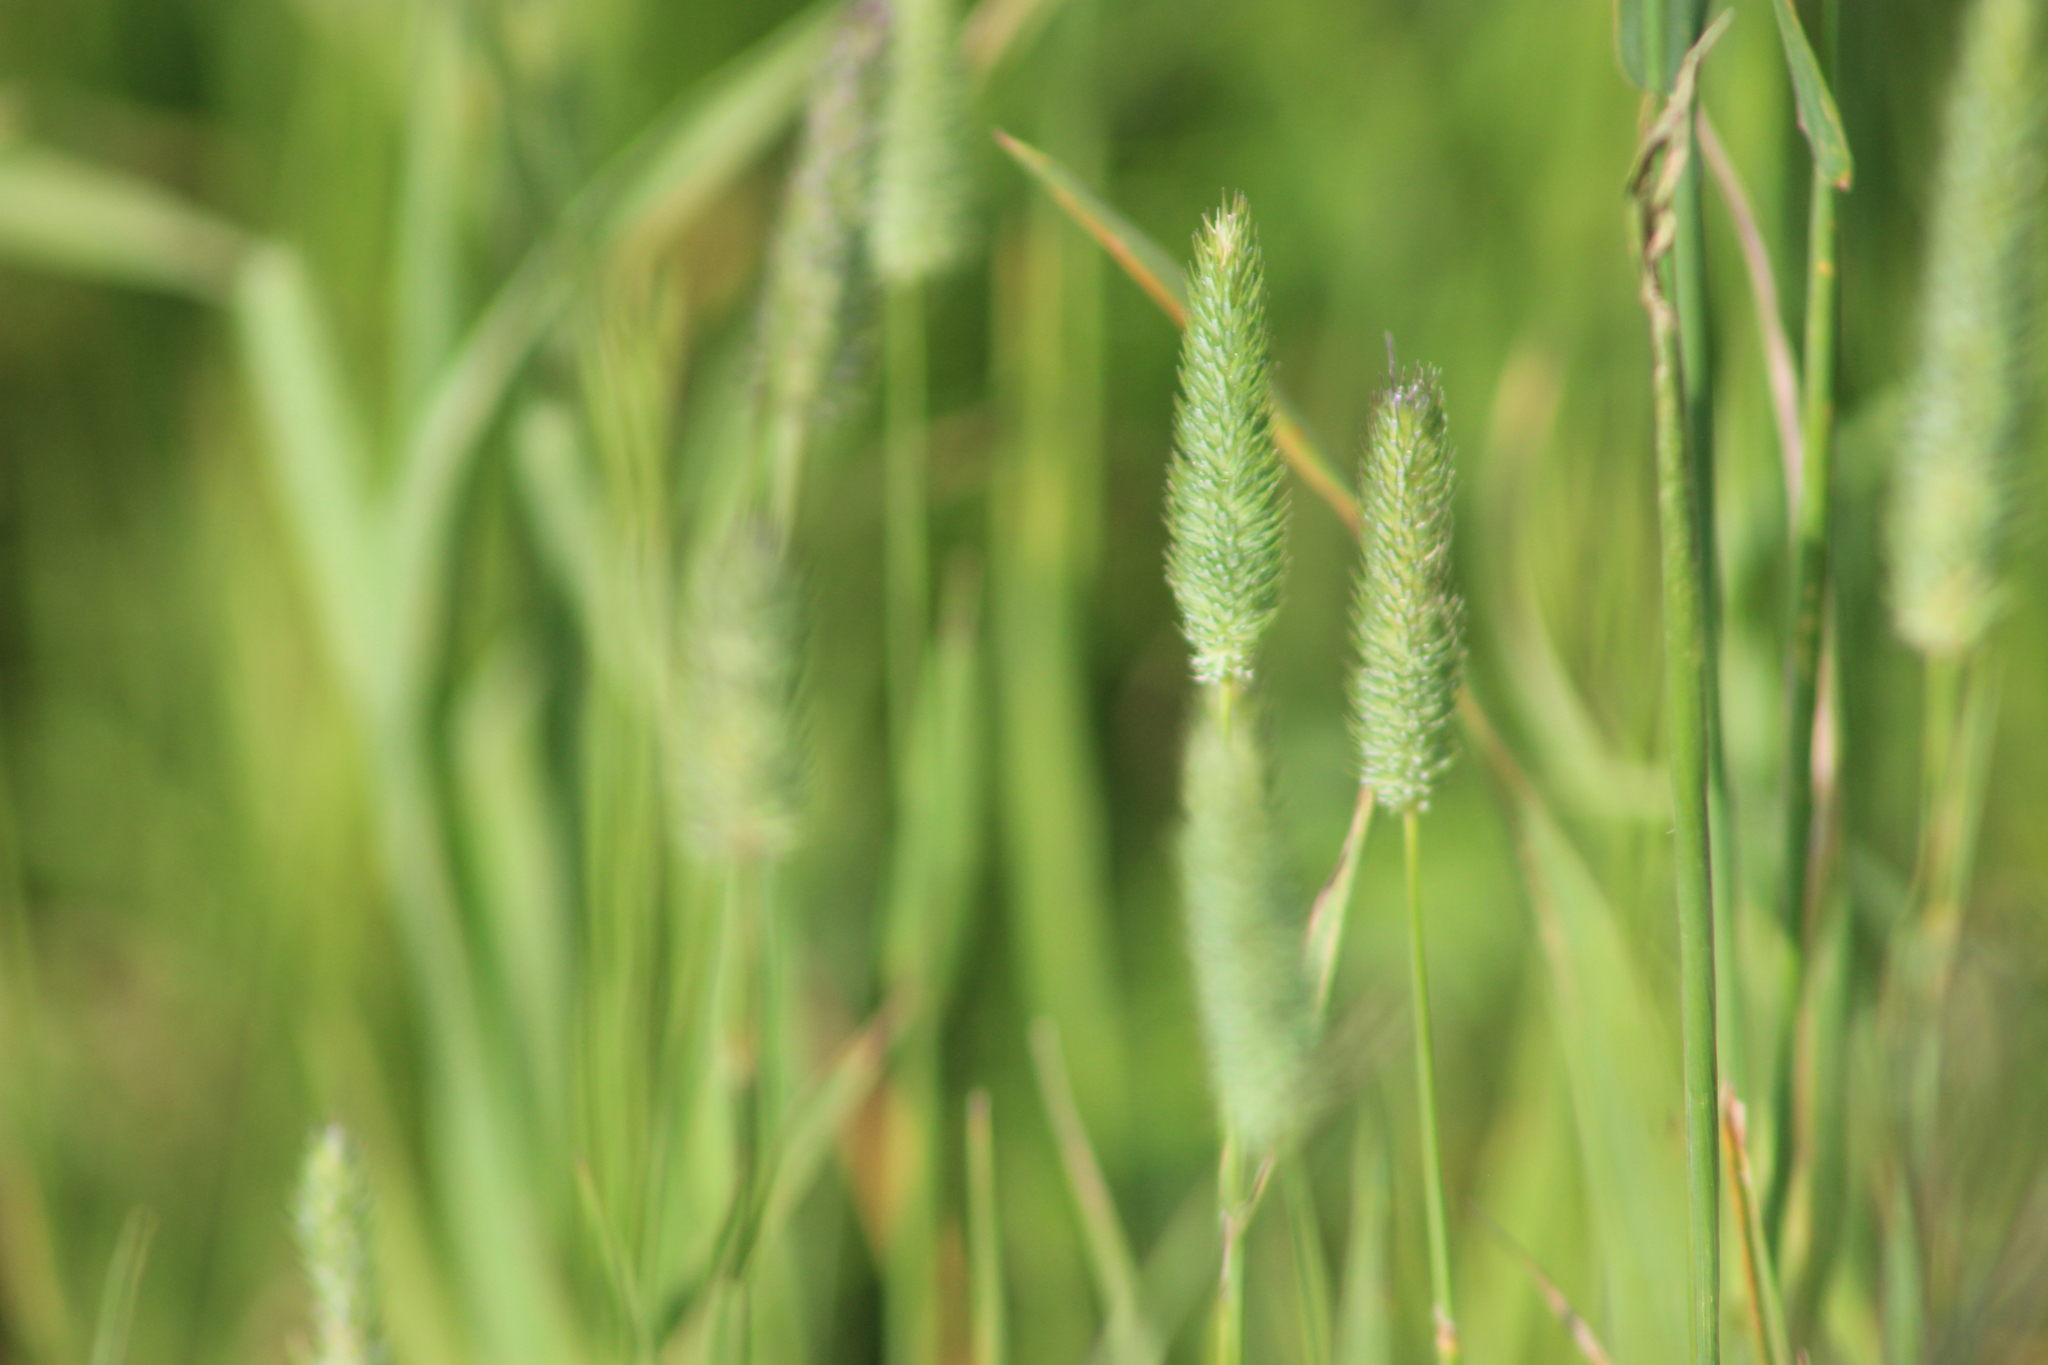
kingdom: Plantae
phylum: Tracheophyta
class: Liliopsida
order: Poales
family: Poaceae
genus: Phleum
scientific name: Phleum pratense
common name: Timothy grass
